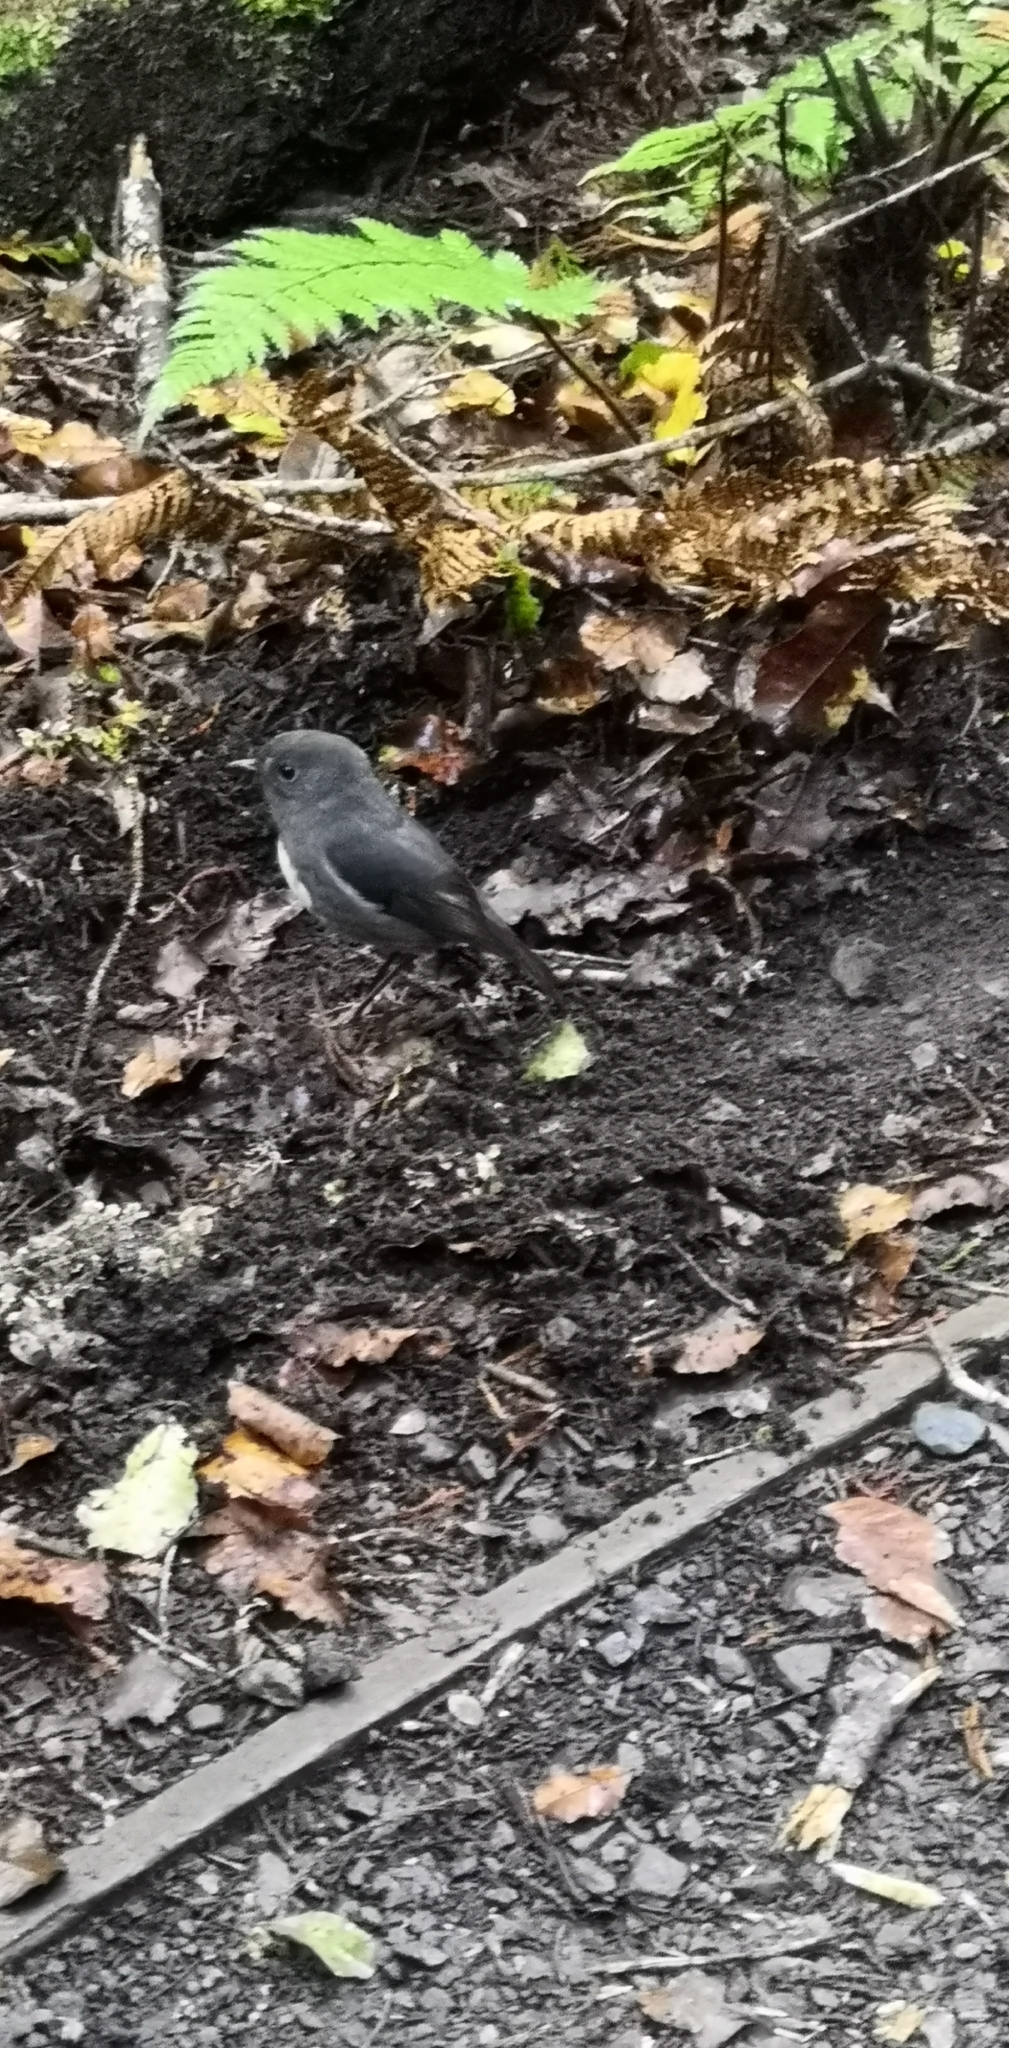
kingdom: Animalia
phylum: Chordata
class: Aves
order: Passeriformes
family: Petroicidae
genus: Petroica
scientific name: Petroica australis
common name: New zealand robin
